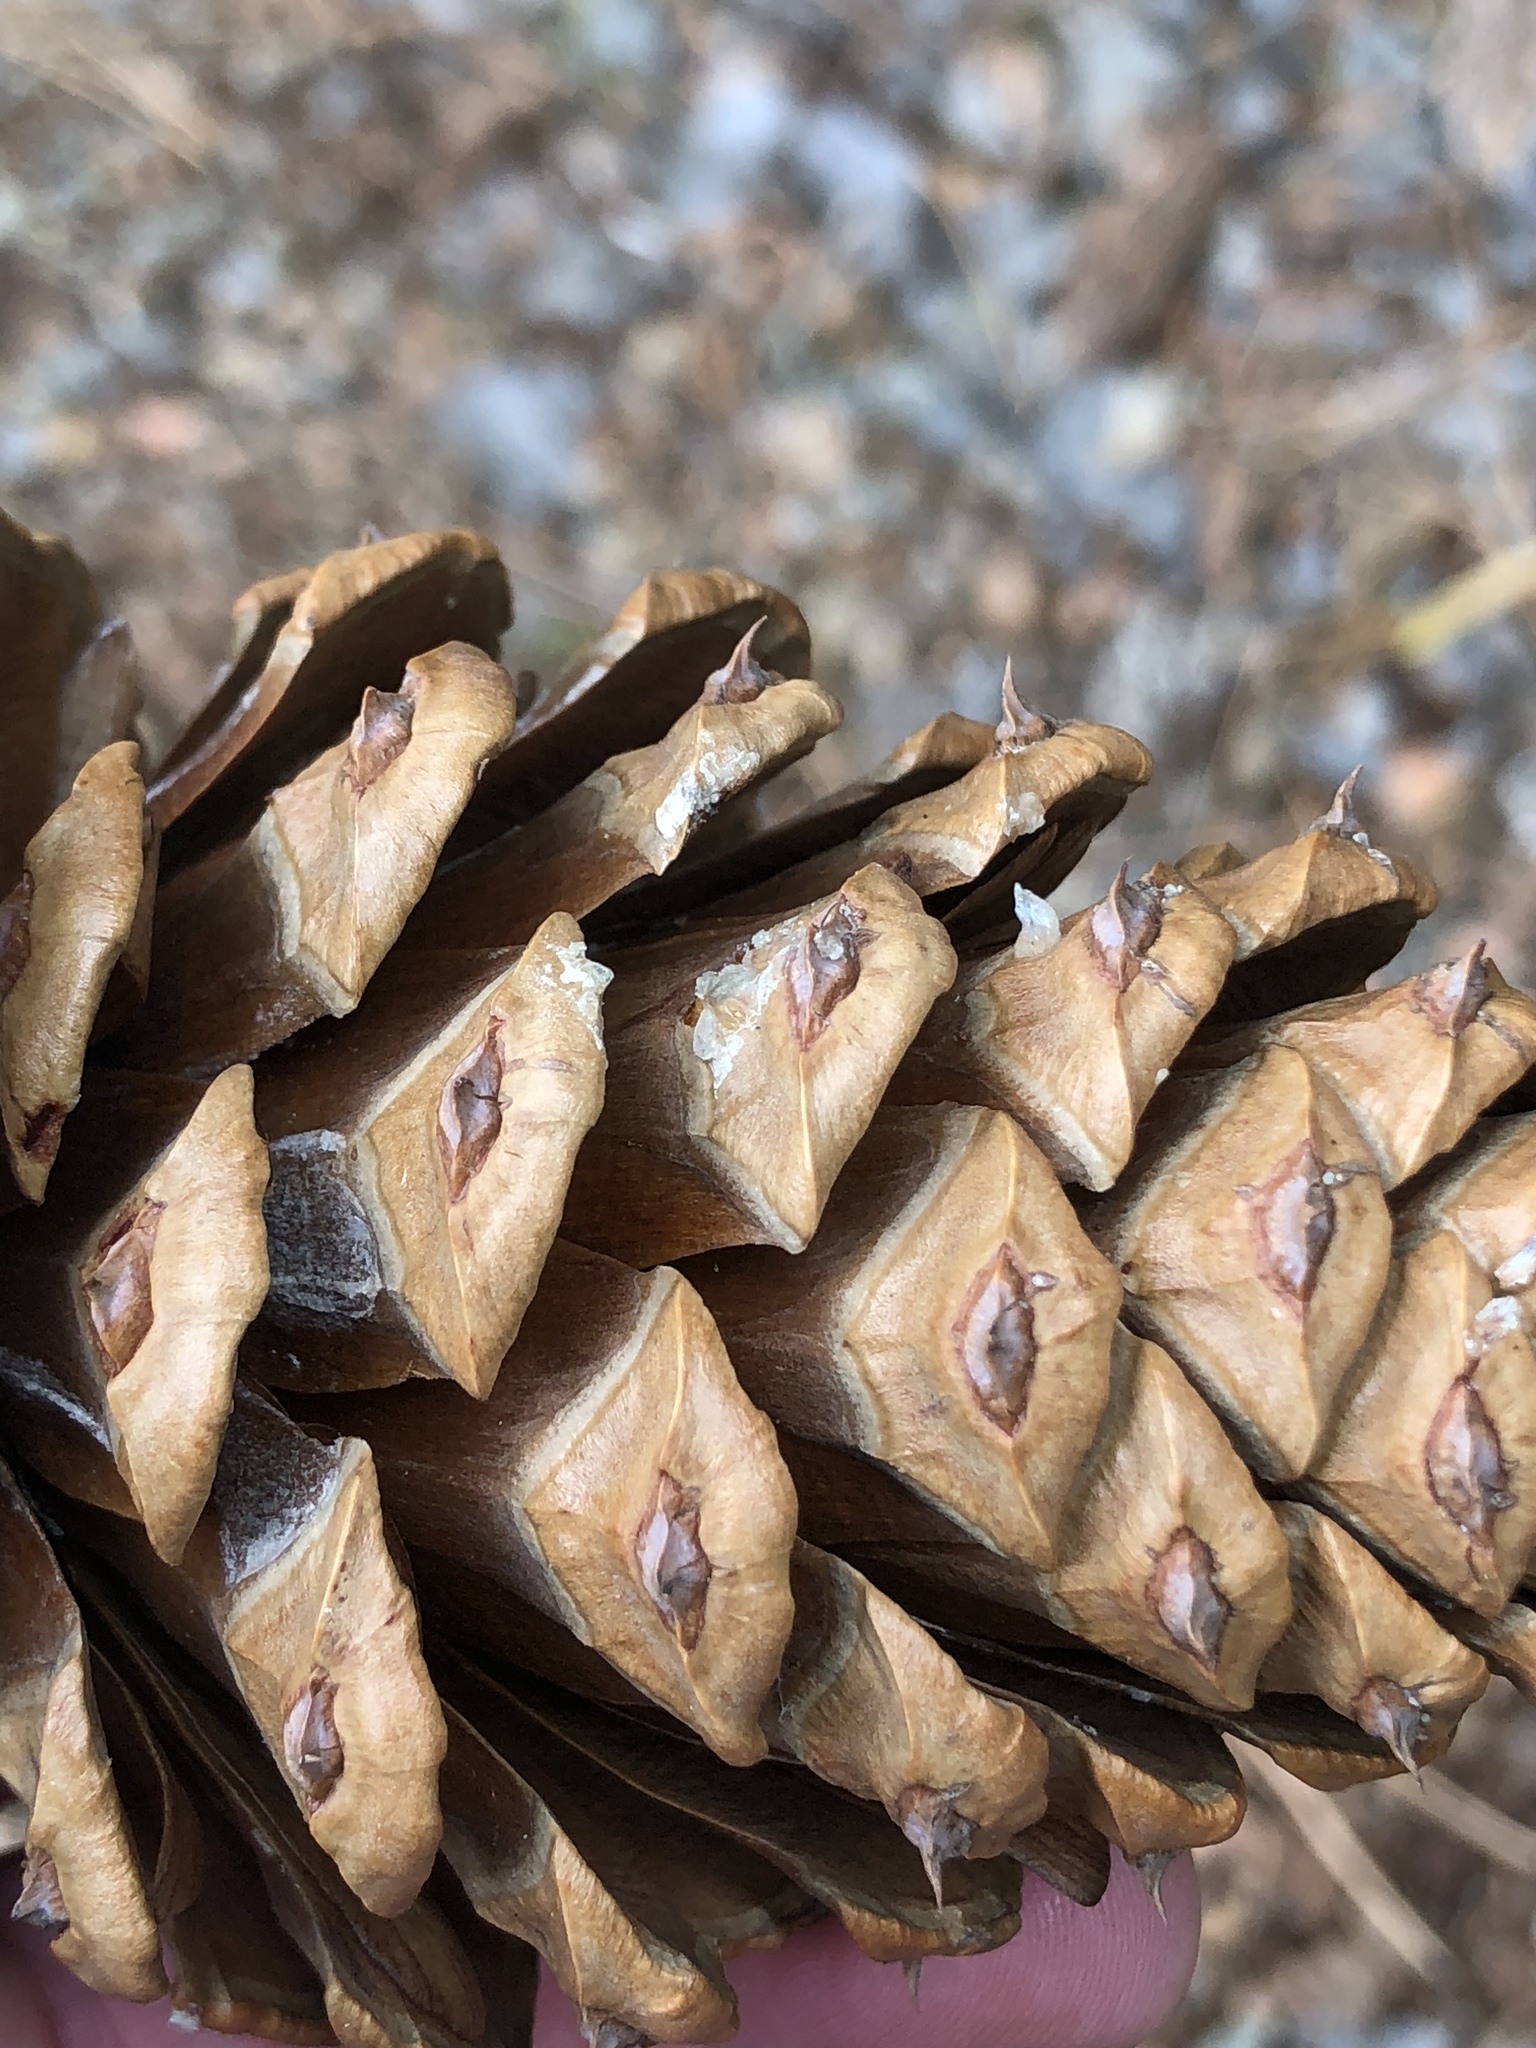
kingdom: Plantae
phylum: Tracheophyta
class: Pinopsida
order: Pinales
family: Pinaceae
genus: Pinus
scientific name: Pinus ponderosa
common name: Western yellow-pine
